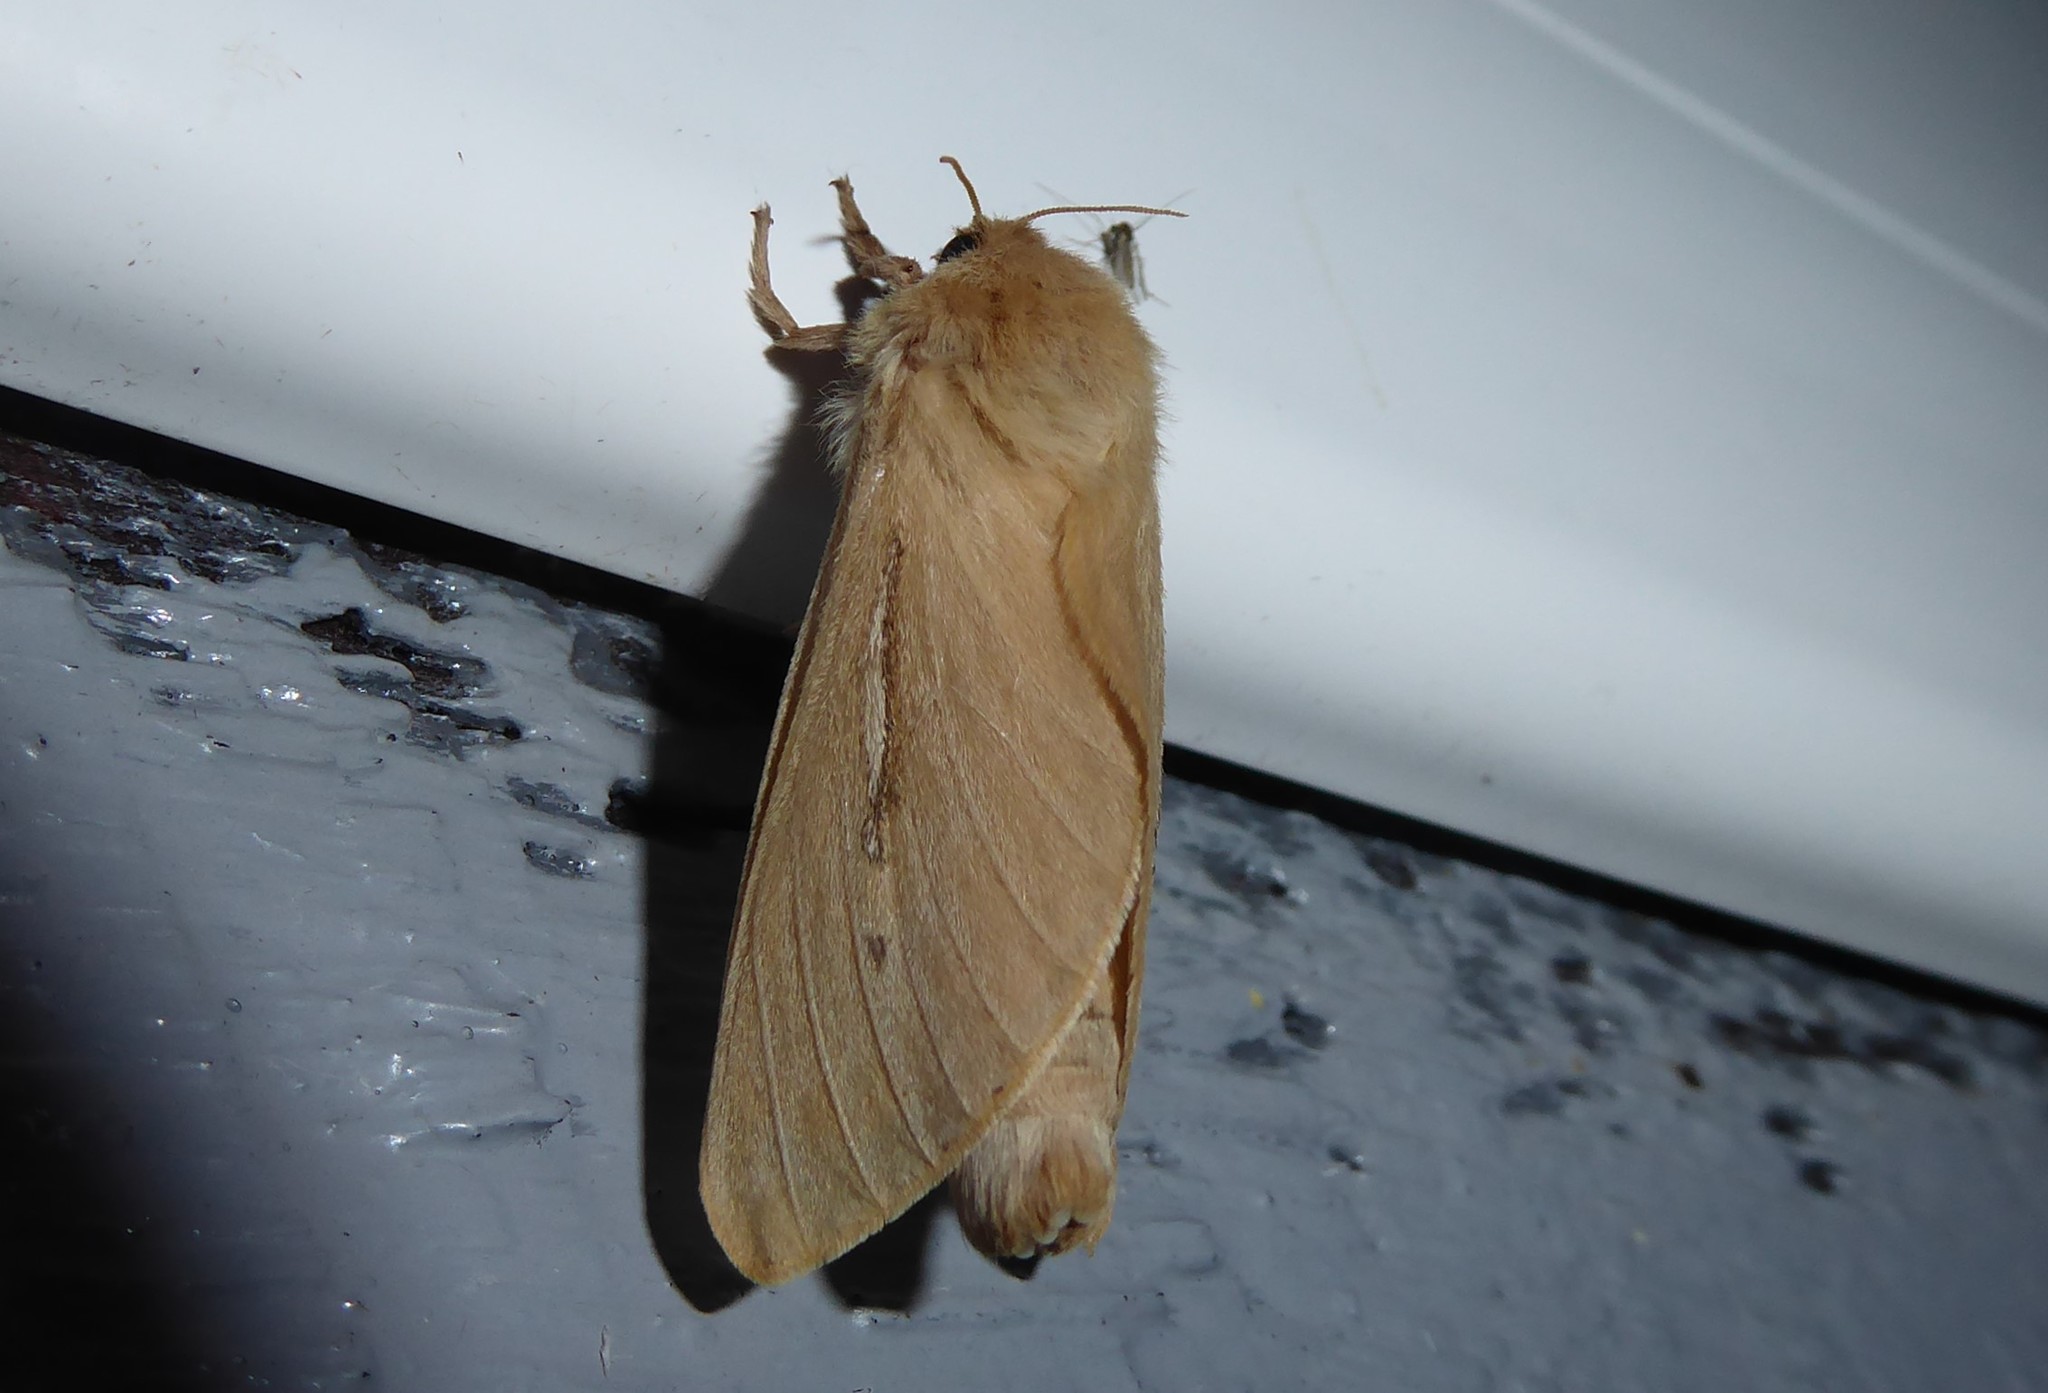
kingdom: Animalia
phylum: Arthropoda
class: Insecta
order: Lepidoptera
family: Hepialidae
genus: Wiseana
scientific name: Wiseana umbraculatus
